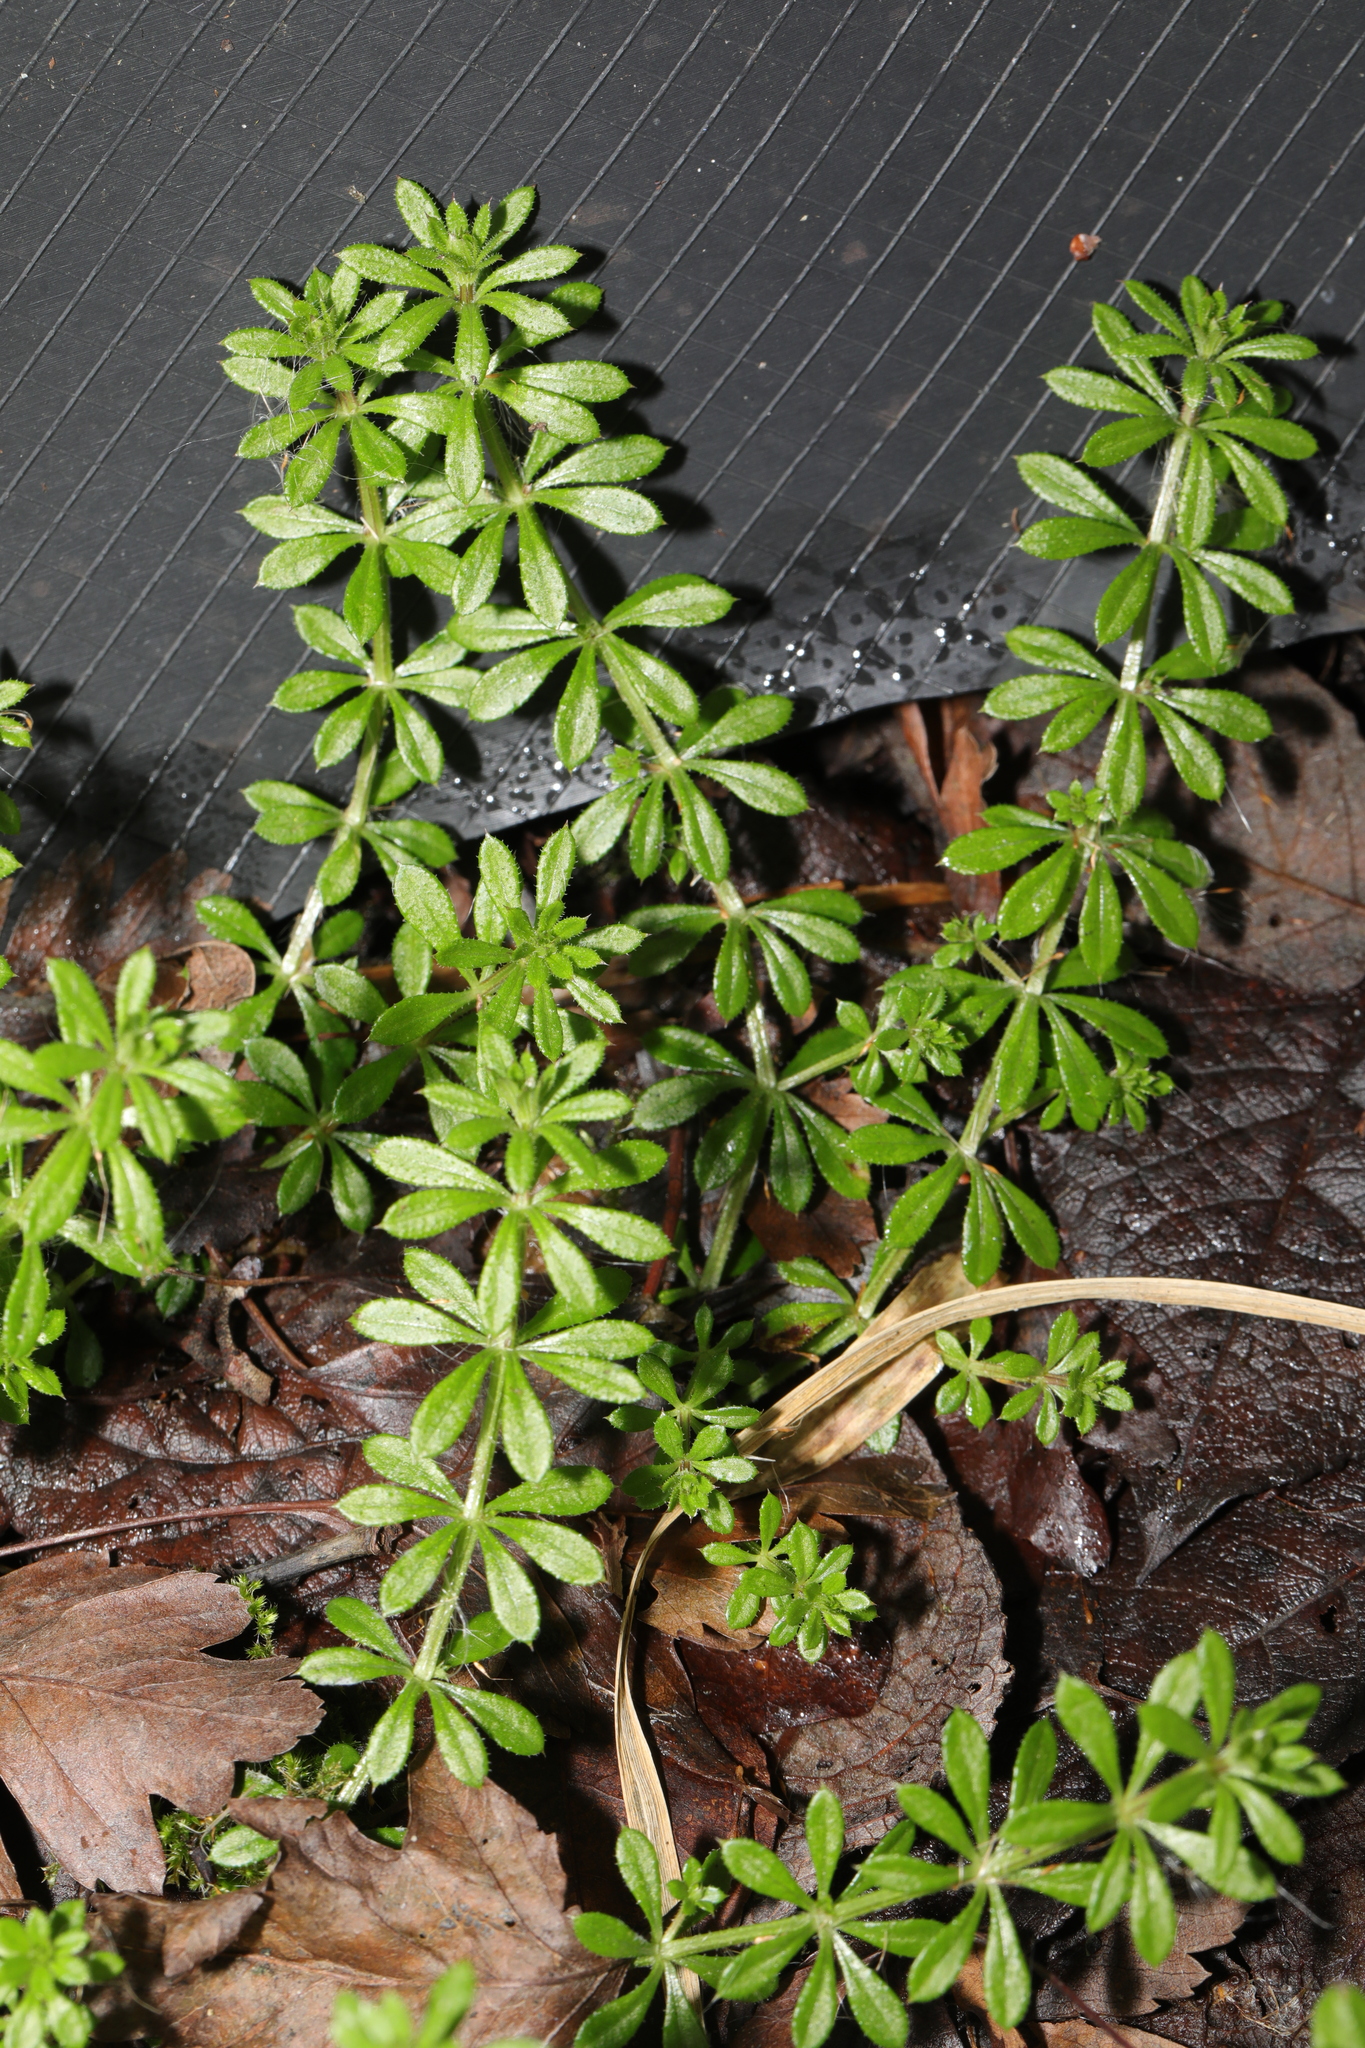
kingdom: Plantae
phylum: Tracheophyta
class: Magnoliopsida
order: Gentianales
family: Rubiaceae
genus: Galium
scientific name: Galium aparine
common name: Cleavers
